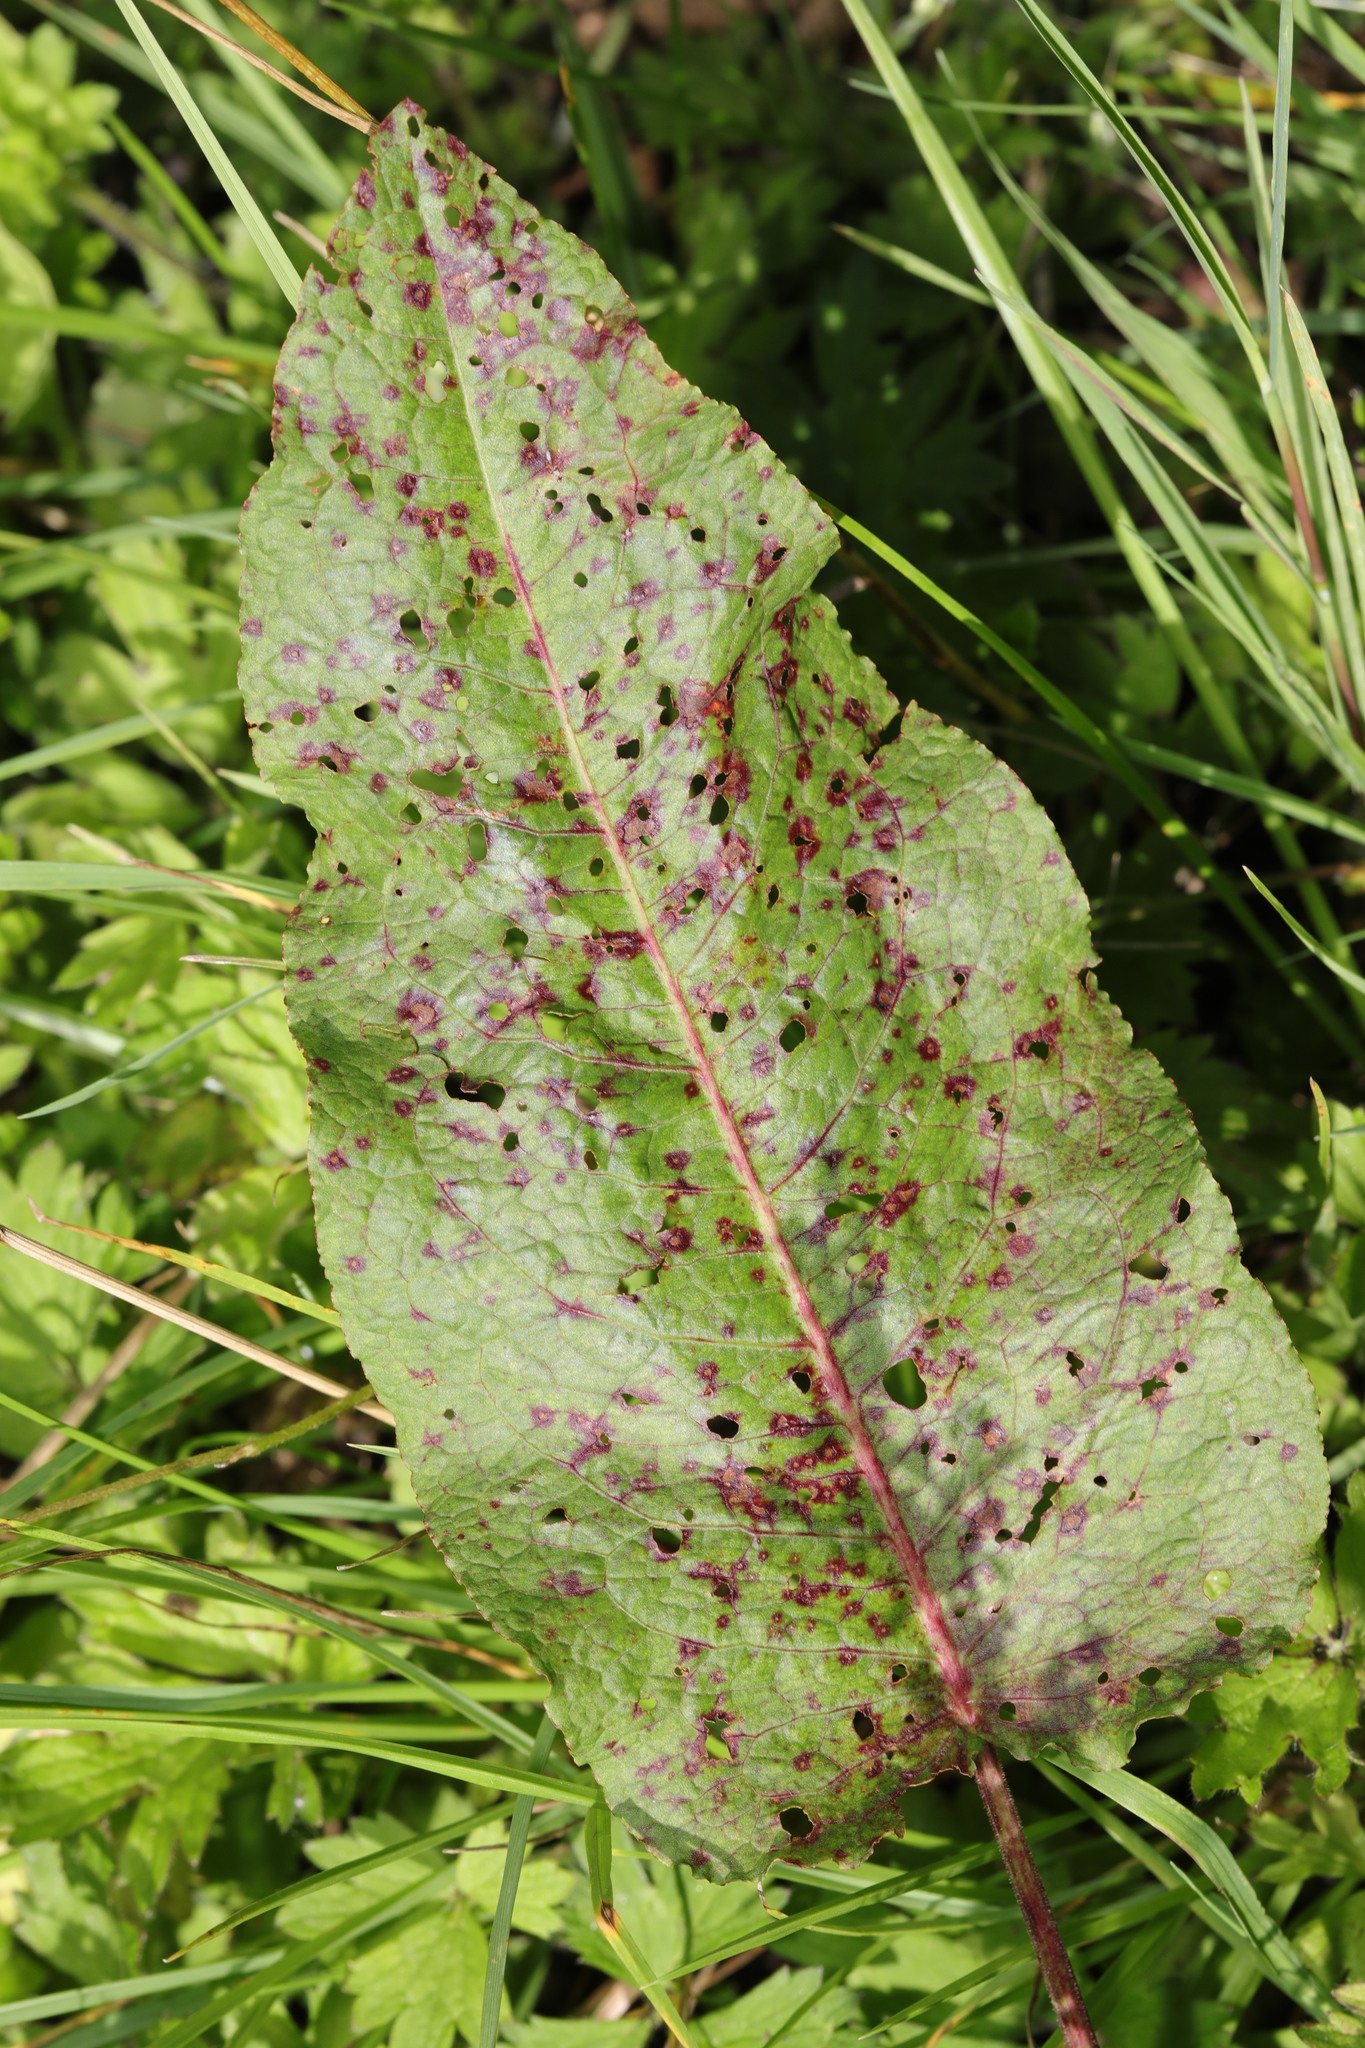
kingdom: Plantae
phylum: Tracheophyta
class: Magnoliopsida
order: Caryophyllales
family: Polygonaceae
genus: Rumex
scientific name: Rumex obtusifolius
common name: Bitter dock
